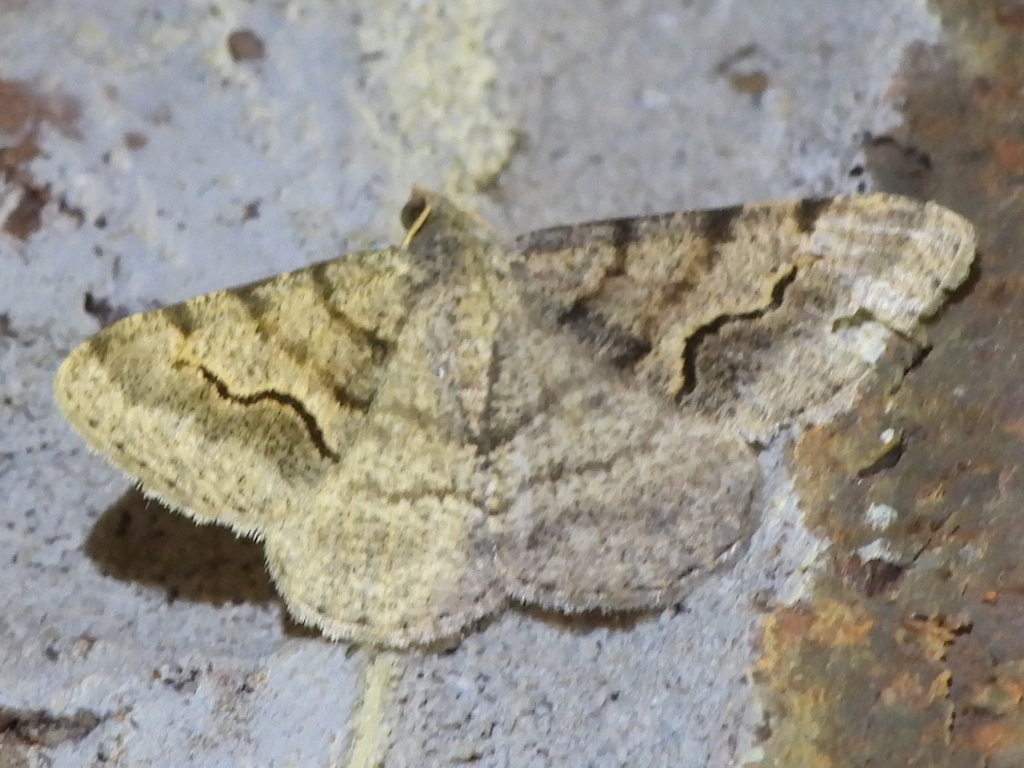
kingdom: Animalia
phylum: Arthropoda
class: Insecta
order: Lepidoptera
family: Geometridae
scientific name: Geometridae
